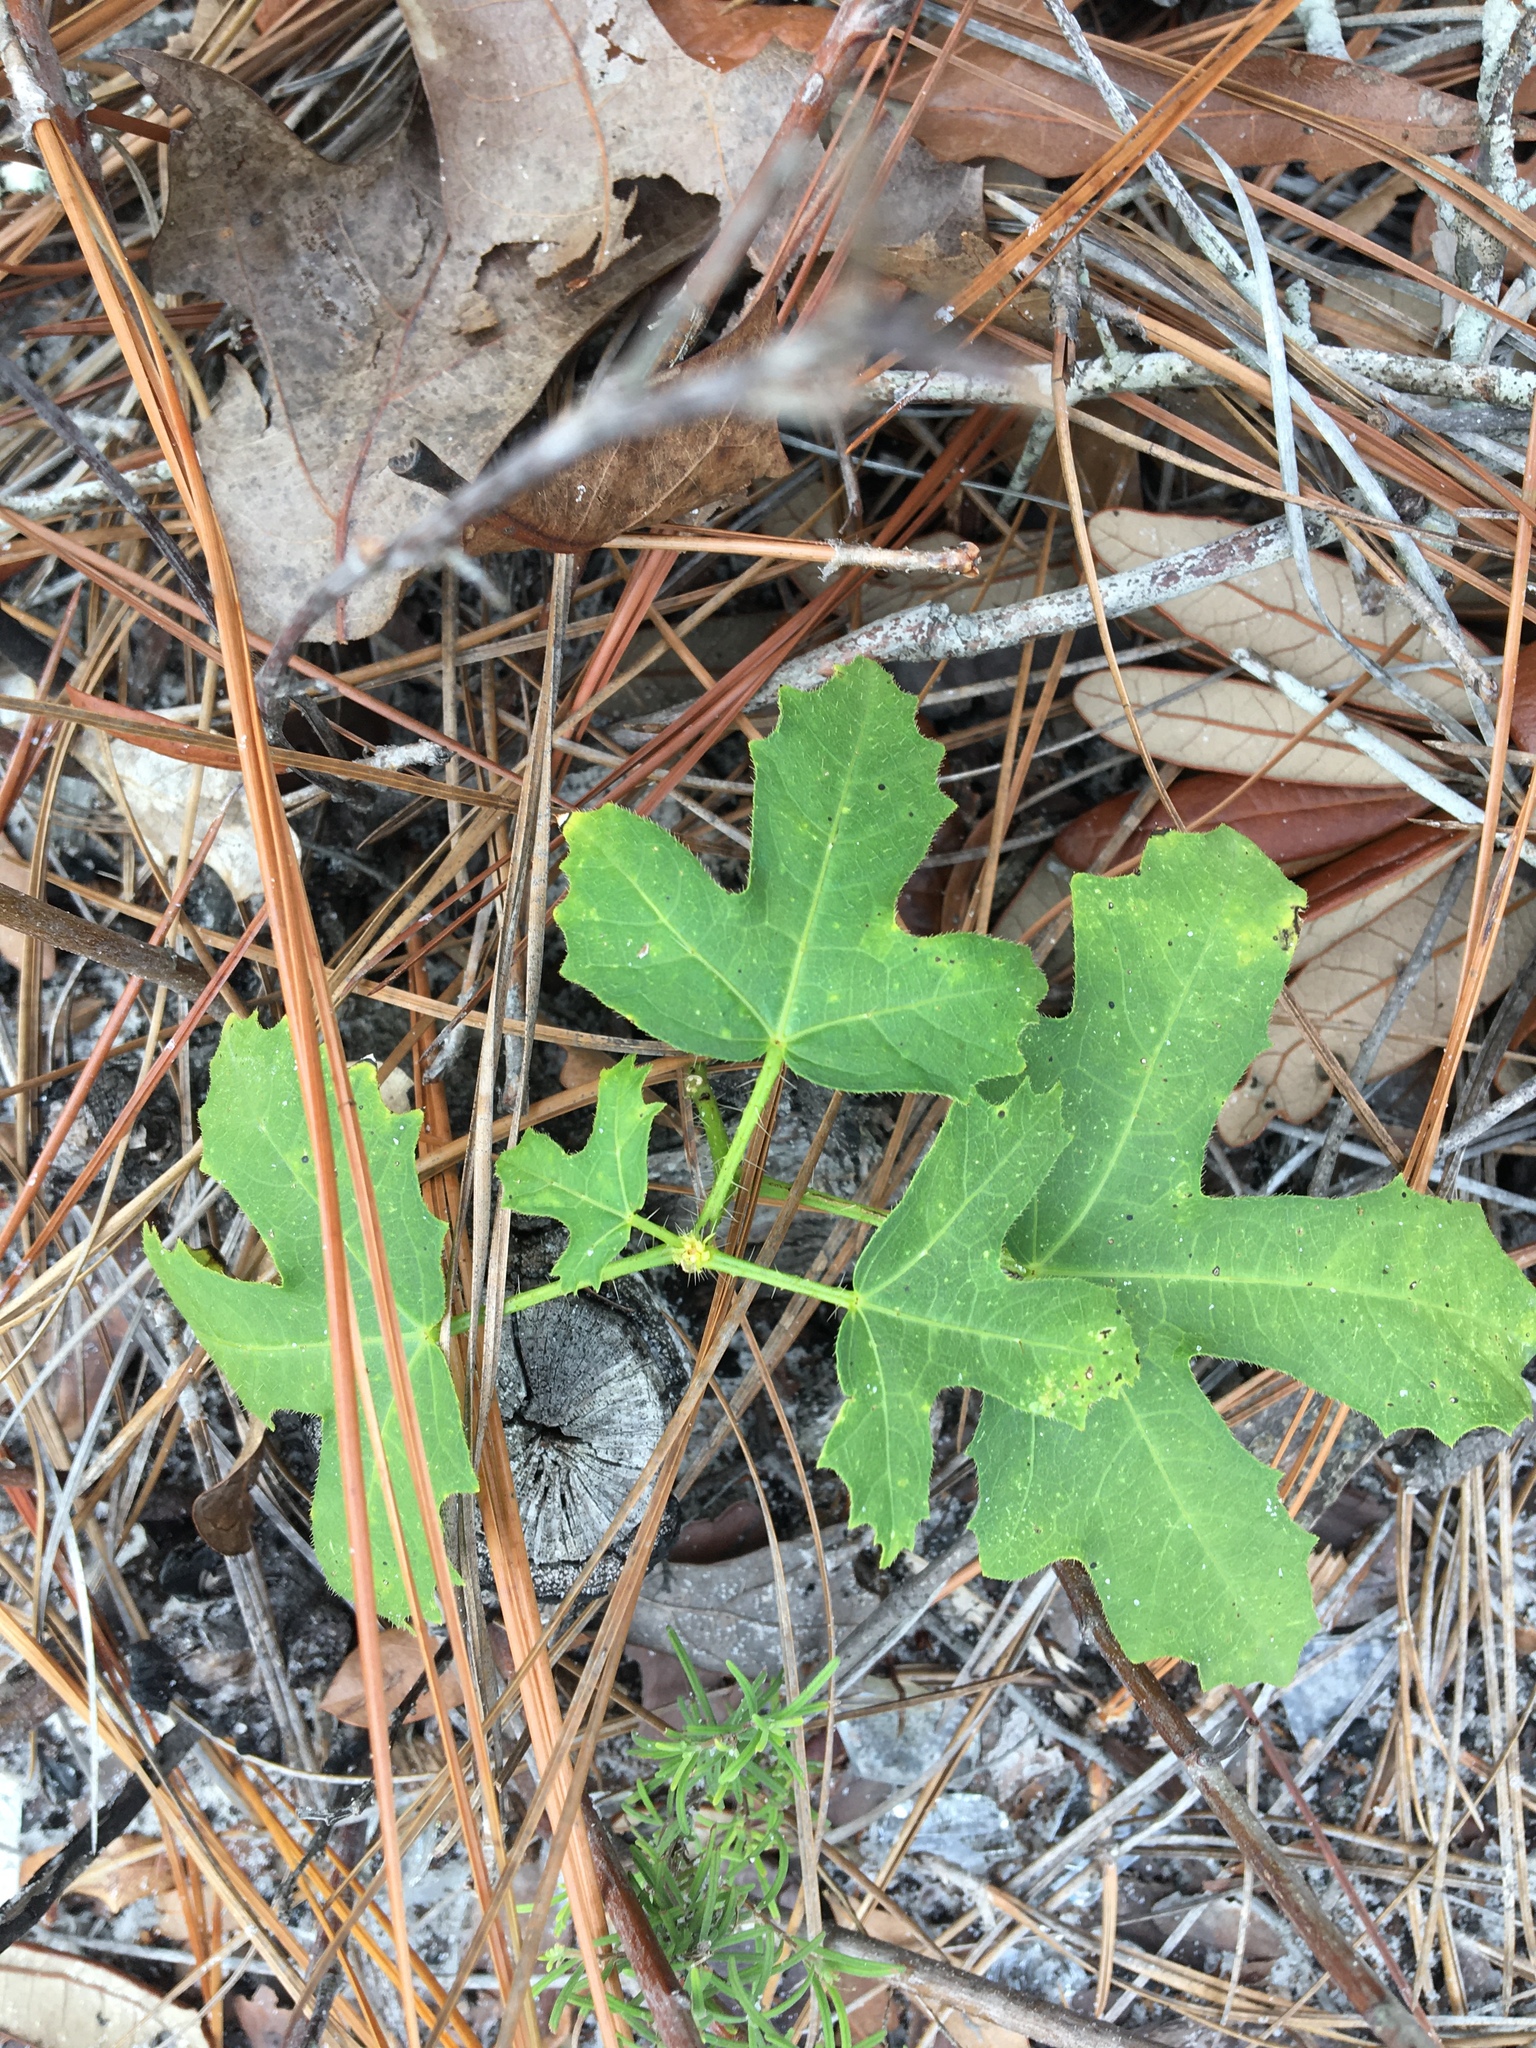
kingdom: Plantae
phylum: Tracheophyta
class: Magnoliopsida
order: Malpighiales
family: Euphorbiaceae
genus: Cnidoscolus
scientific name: Cnidoscolus stimulosus
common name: Bull-nettle
